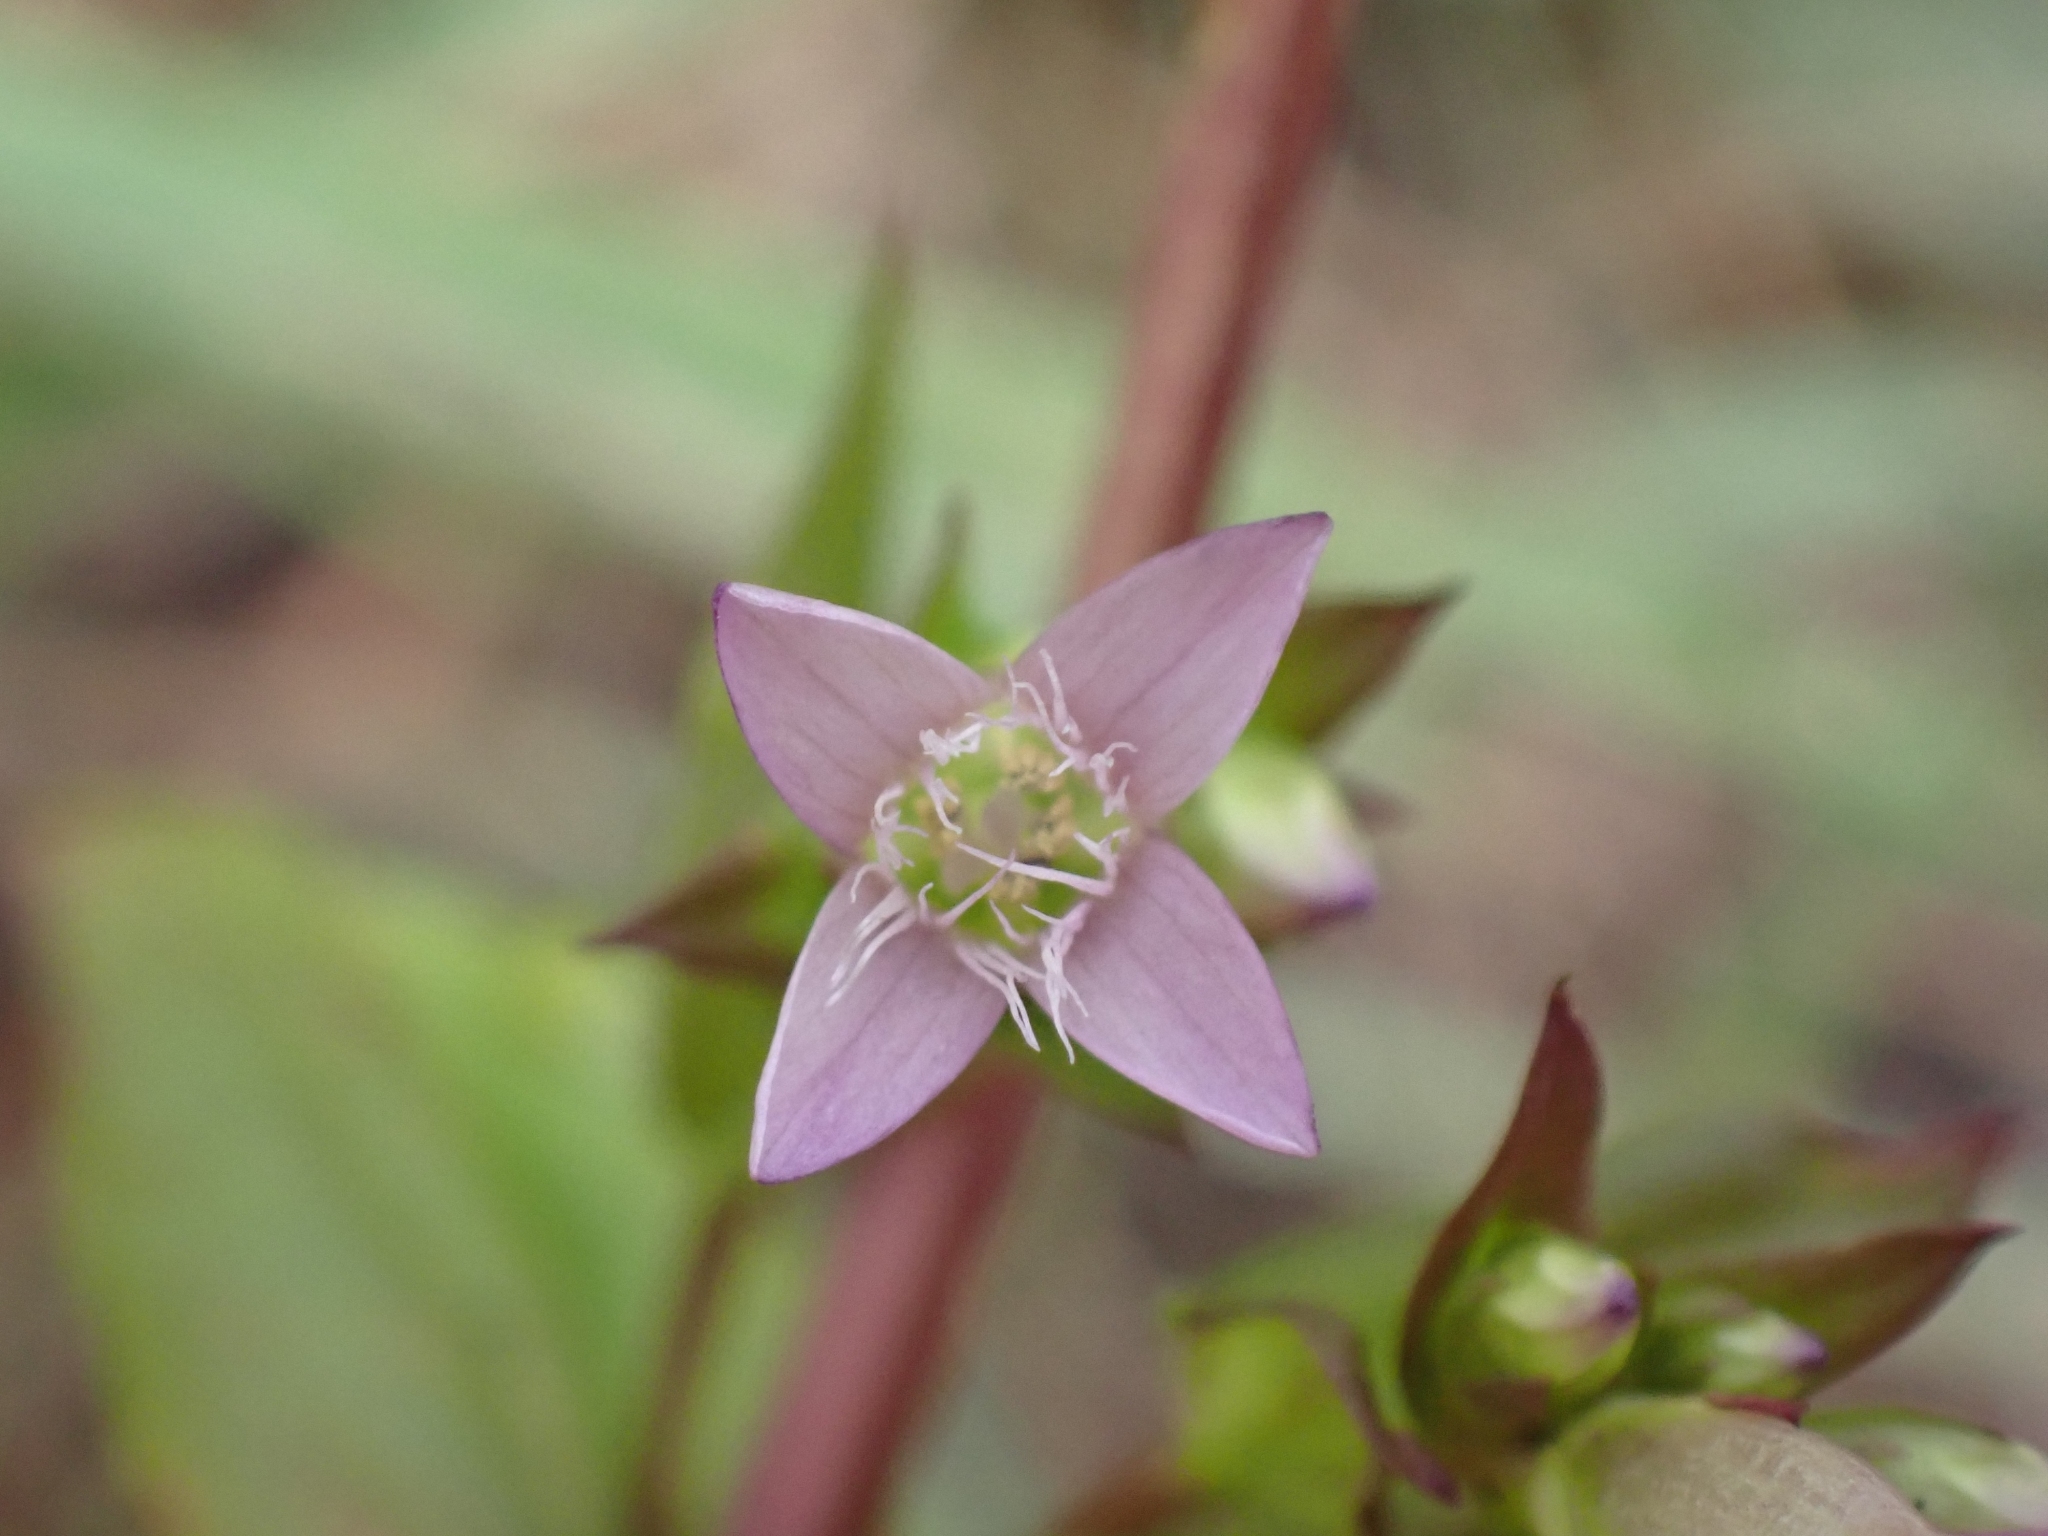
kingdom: Plantae
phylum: Tracheophyta
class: Magnoliopsida
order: Gentianales
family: Gentianaceae
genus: Gentianella
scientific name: Gentianella amarella
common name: Autumn gentian
